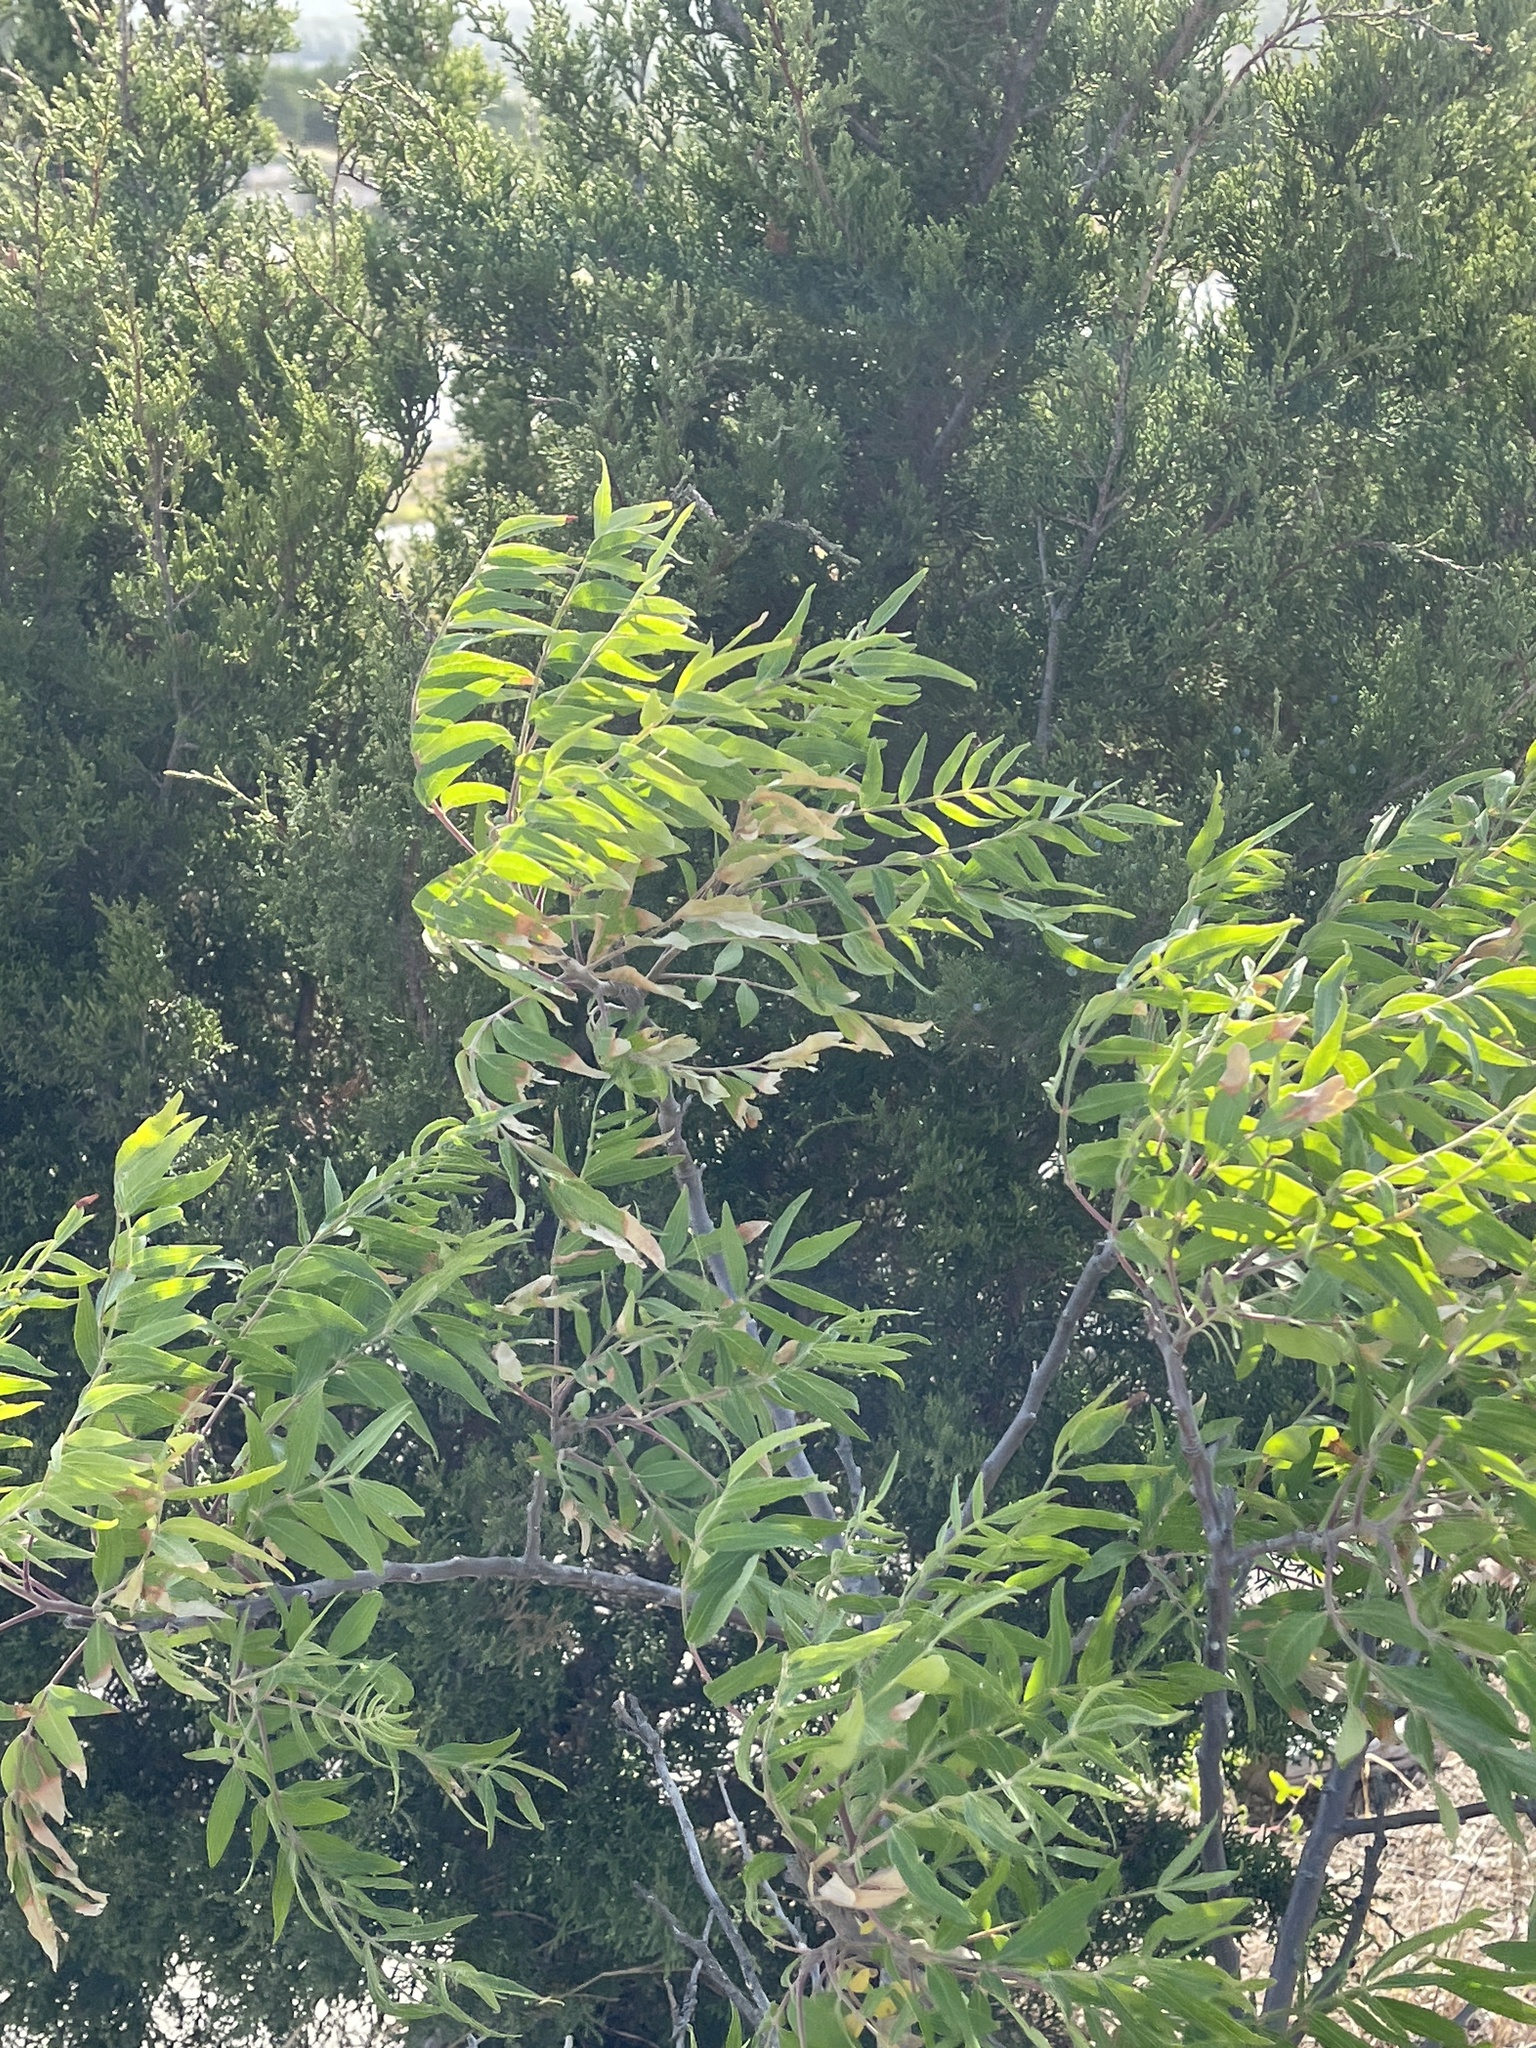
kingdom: Plantae
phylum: Tracheophyta
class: Magnoliopsida
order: Sapindales
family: Anacardiaceae
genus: Rhus
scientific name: Rhus lanceolata
